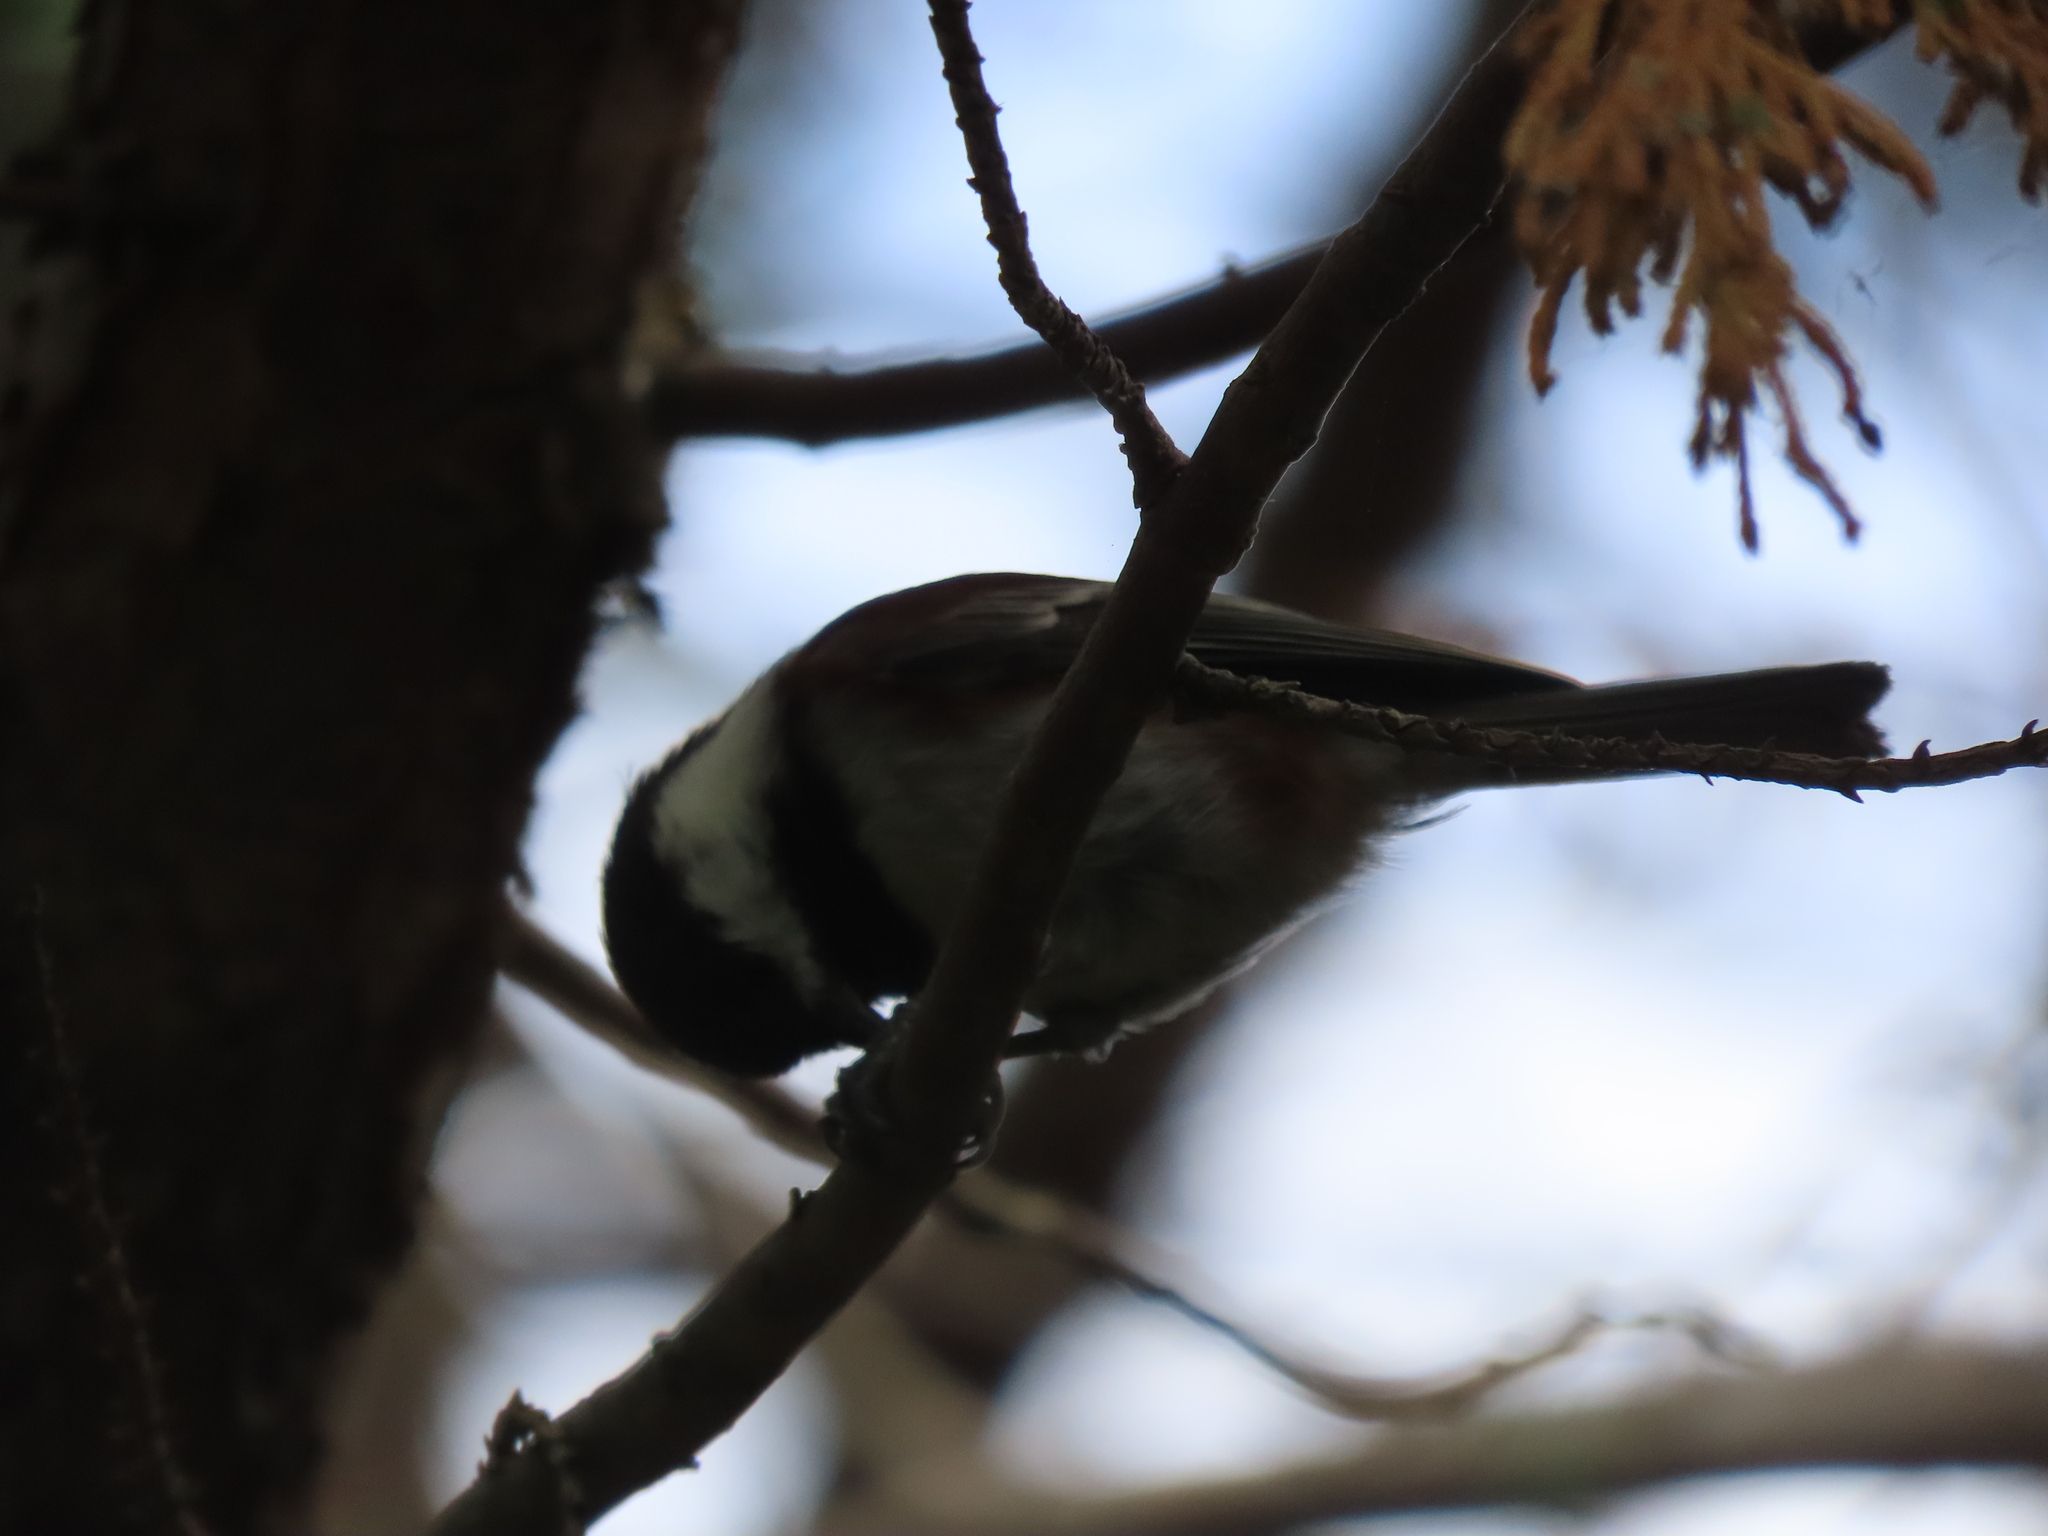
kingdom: Animalia
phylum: Chordata
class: Aves
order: Passeriformes
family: Paridae
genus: Poecile
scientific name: Poecile rufescens
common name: Chestnut-backed chickadee
